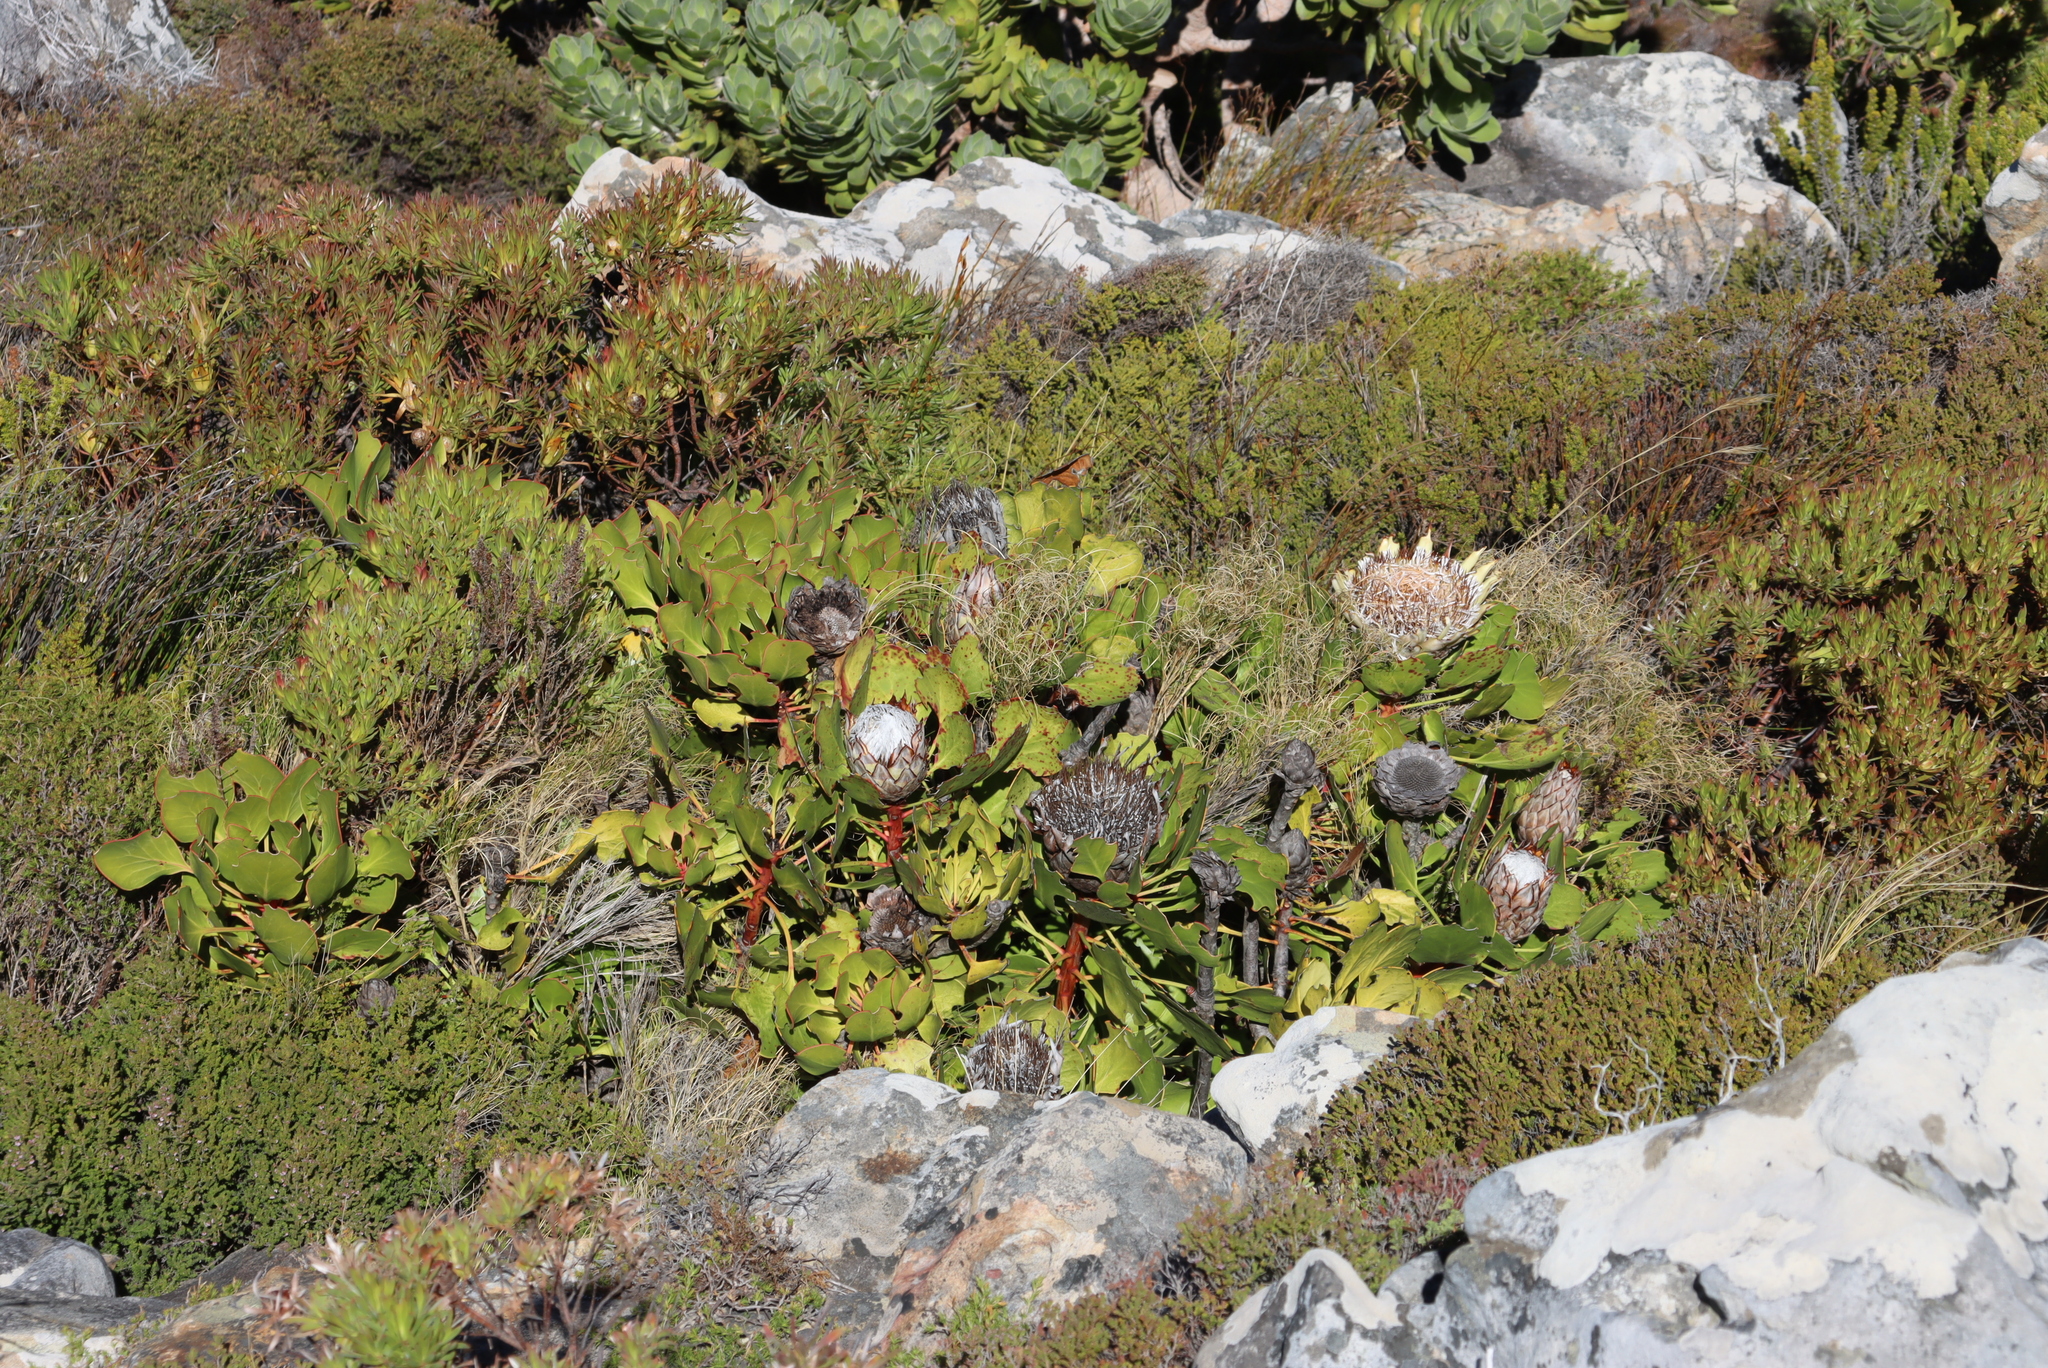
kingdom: Plantae
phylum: Tracheophyta
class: Magnoliopsida
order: Proteales
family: Proteaceae
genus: Protea
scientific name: Protea cynaroides
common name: King protea
